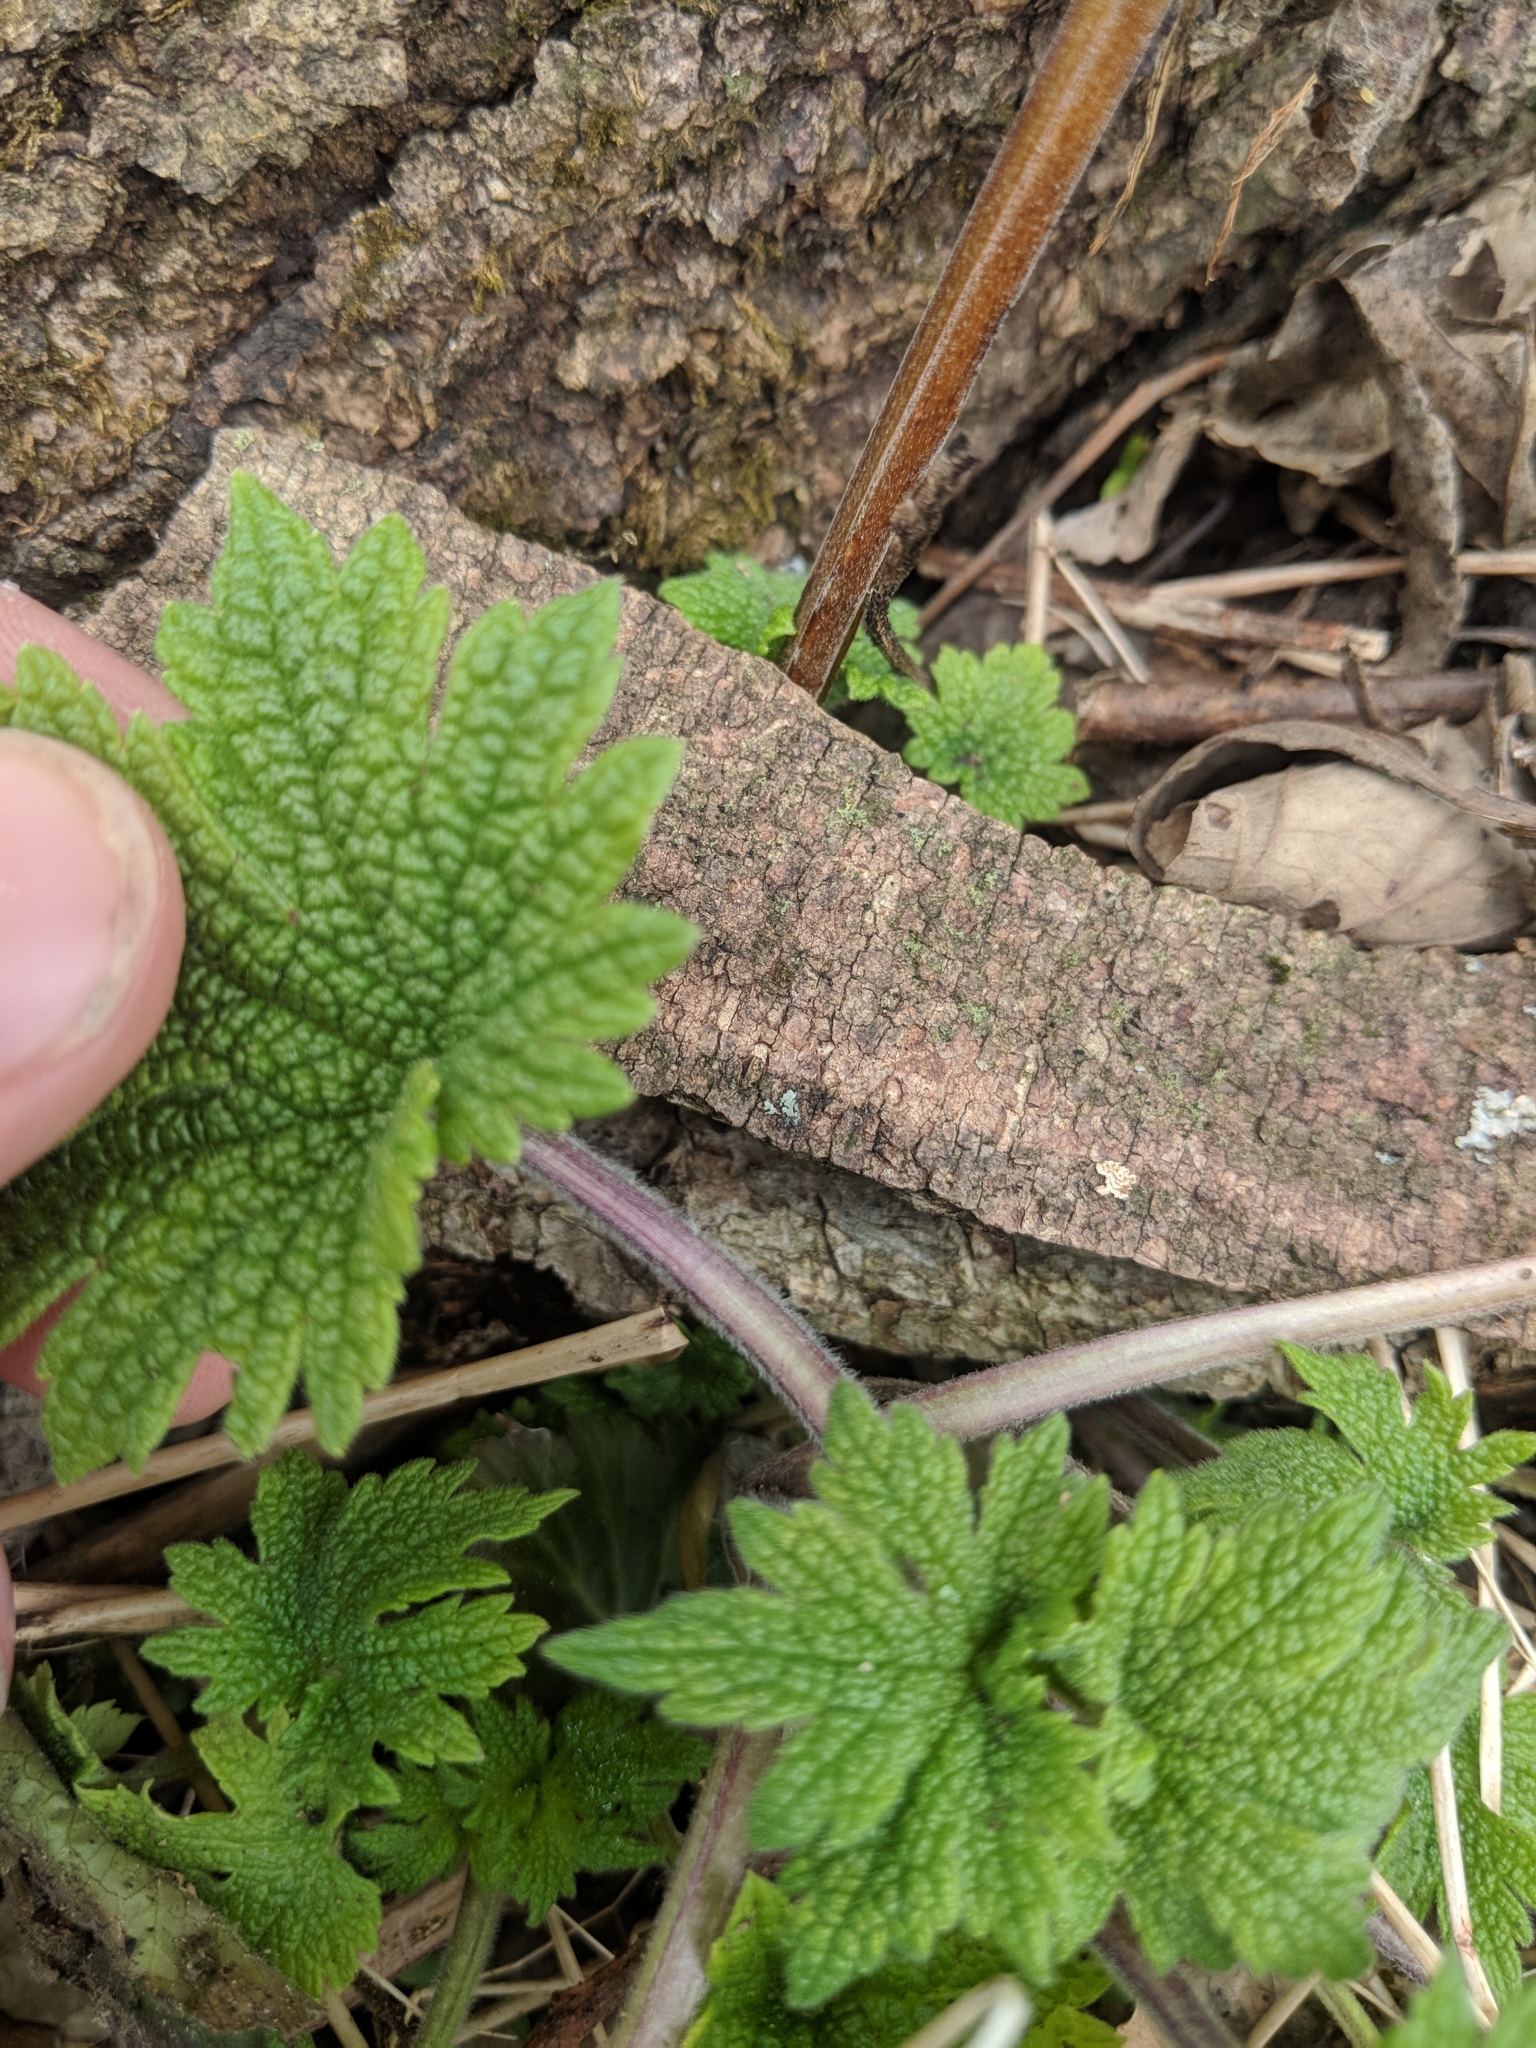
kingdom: Plantae
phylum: Tracheophyta
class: Magnoliopsida
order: Lamiales
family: Lamiaceae
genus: Leonurus
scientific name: Leonurus cardiaca
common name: Motherwort
